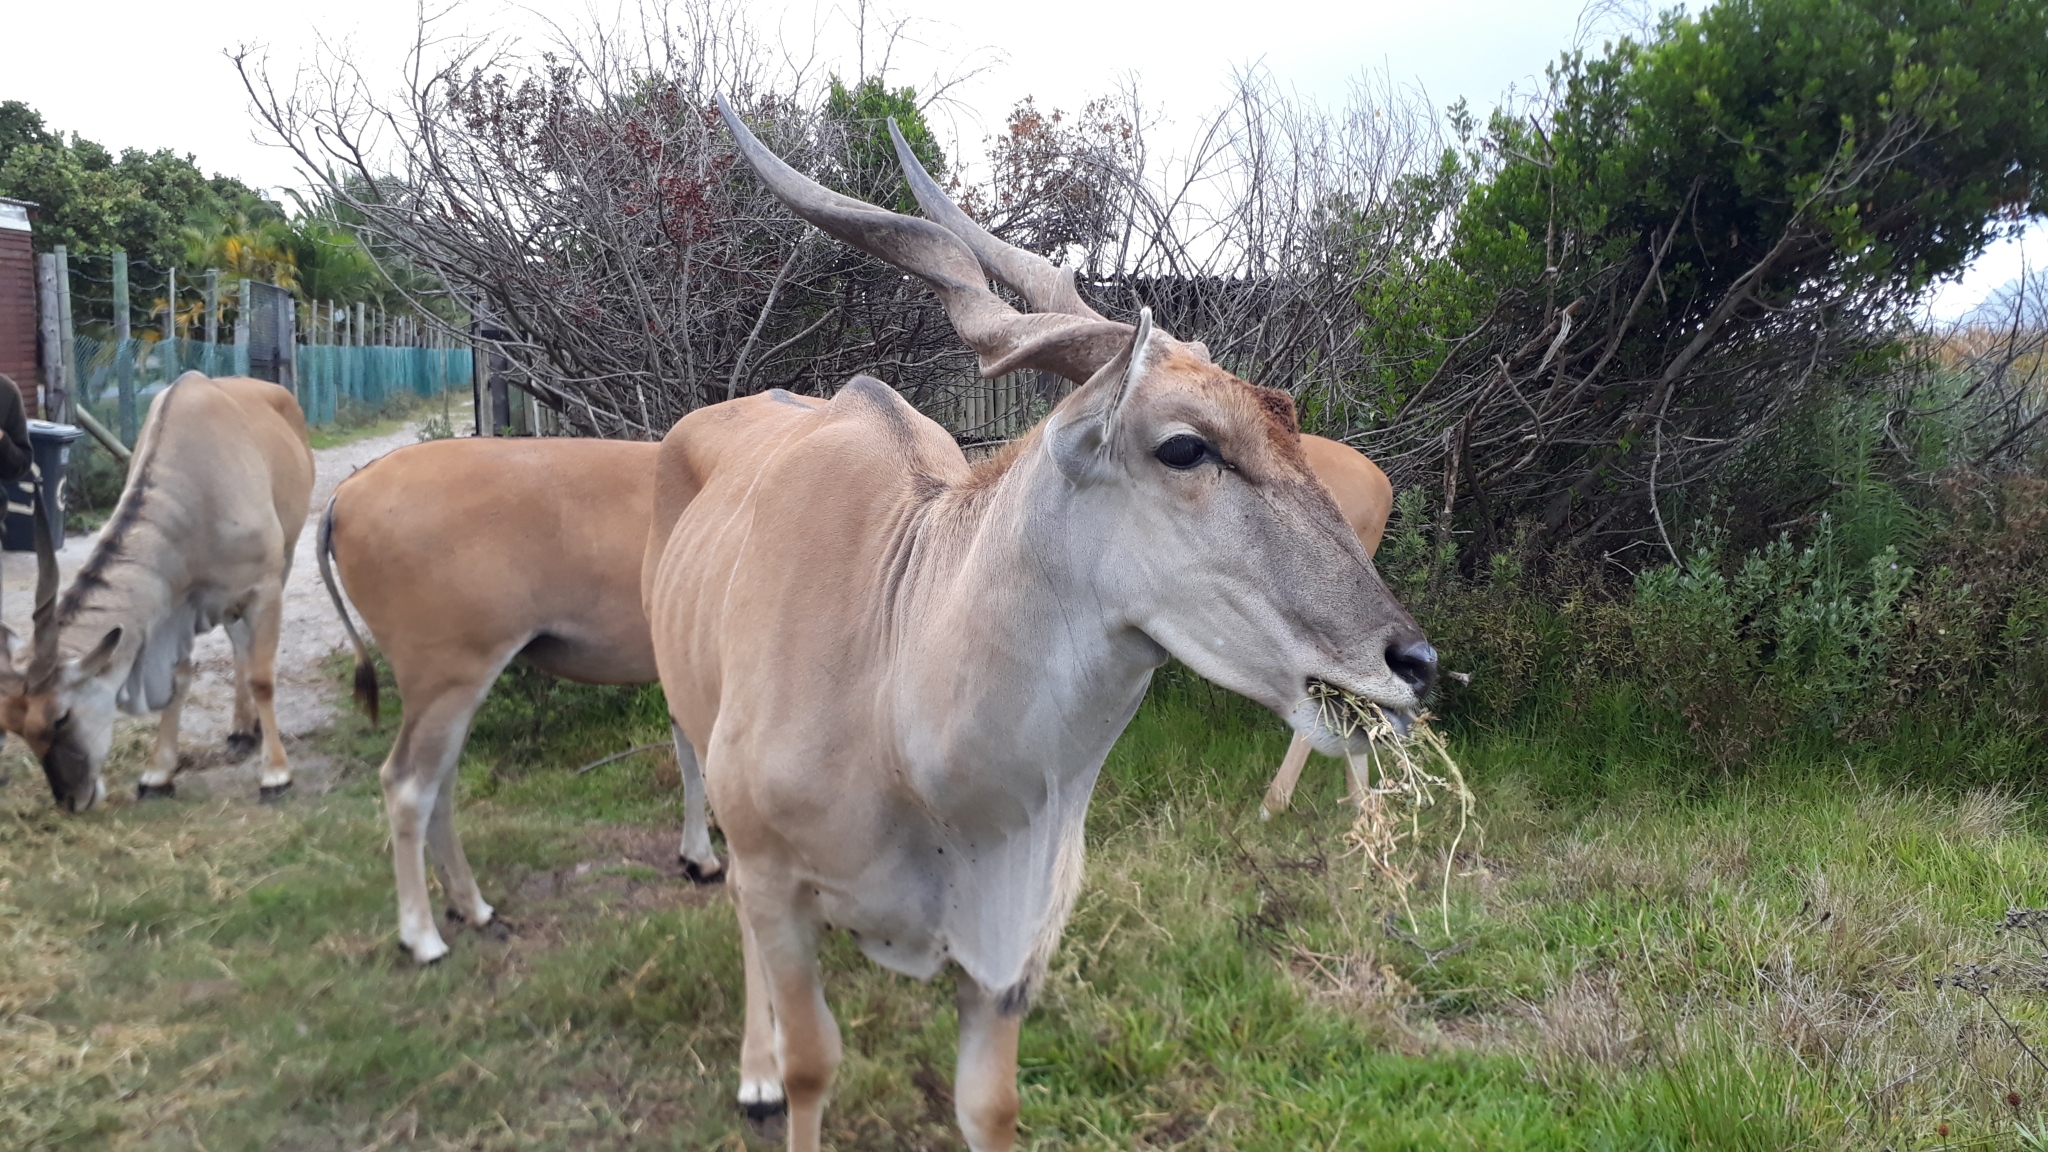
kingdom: Animalia
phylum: Chordata
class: Mammalia
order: Artiodactyla
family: Bovidae
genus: Taurotragus
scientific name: Taurotragus oryx
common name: Common eland
